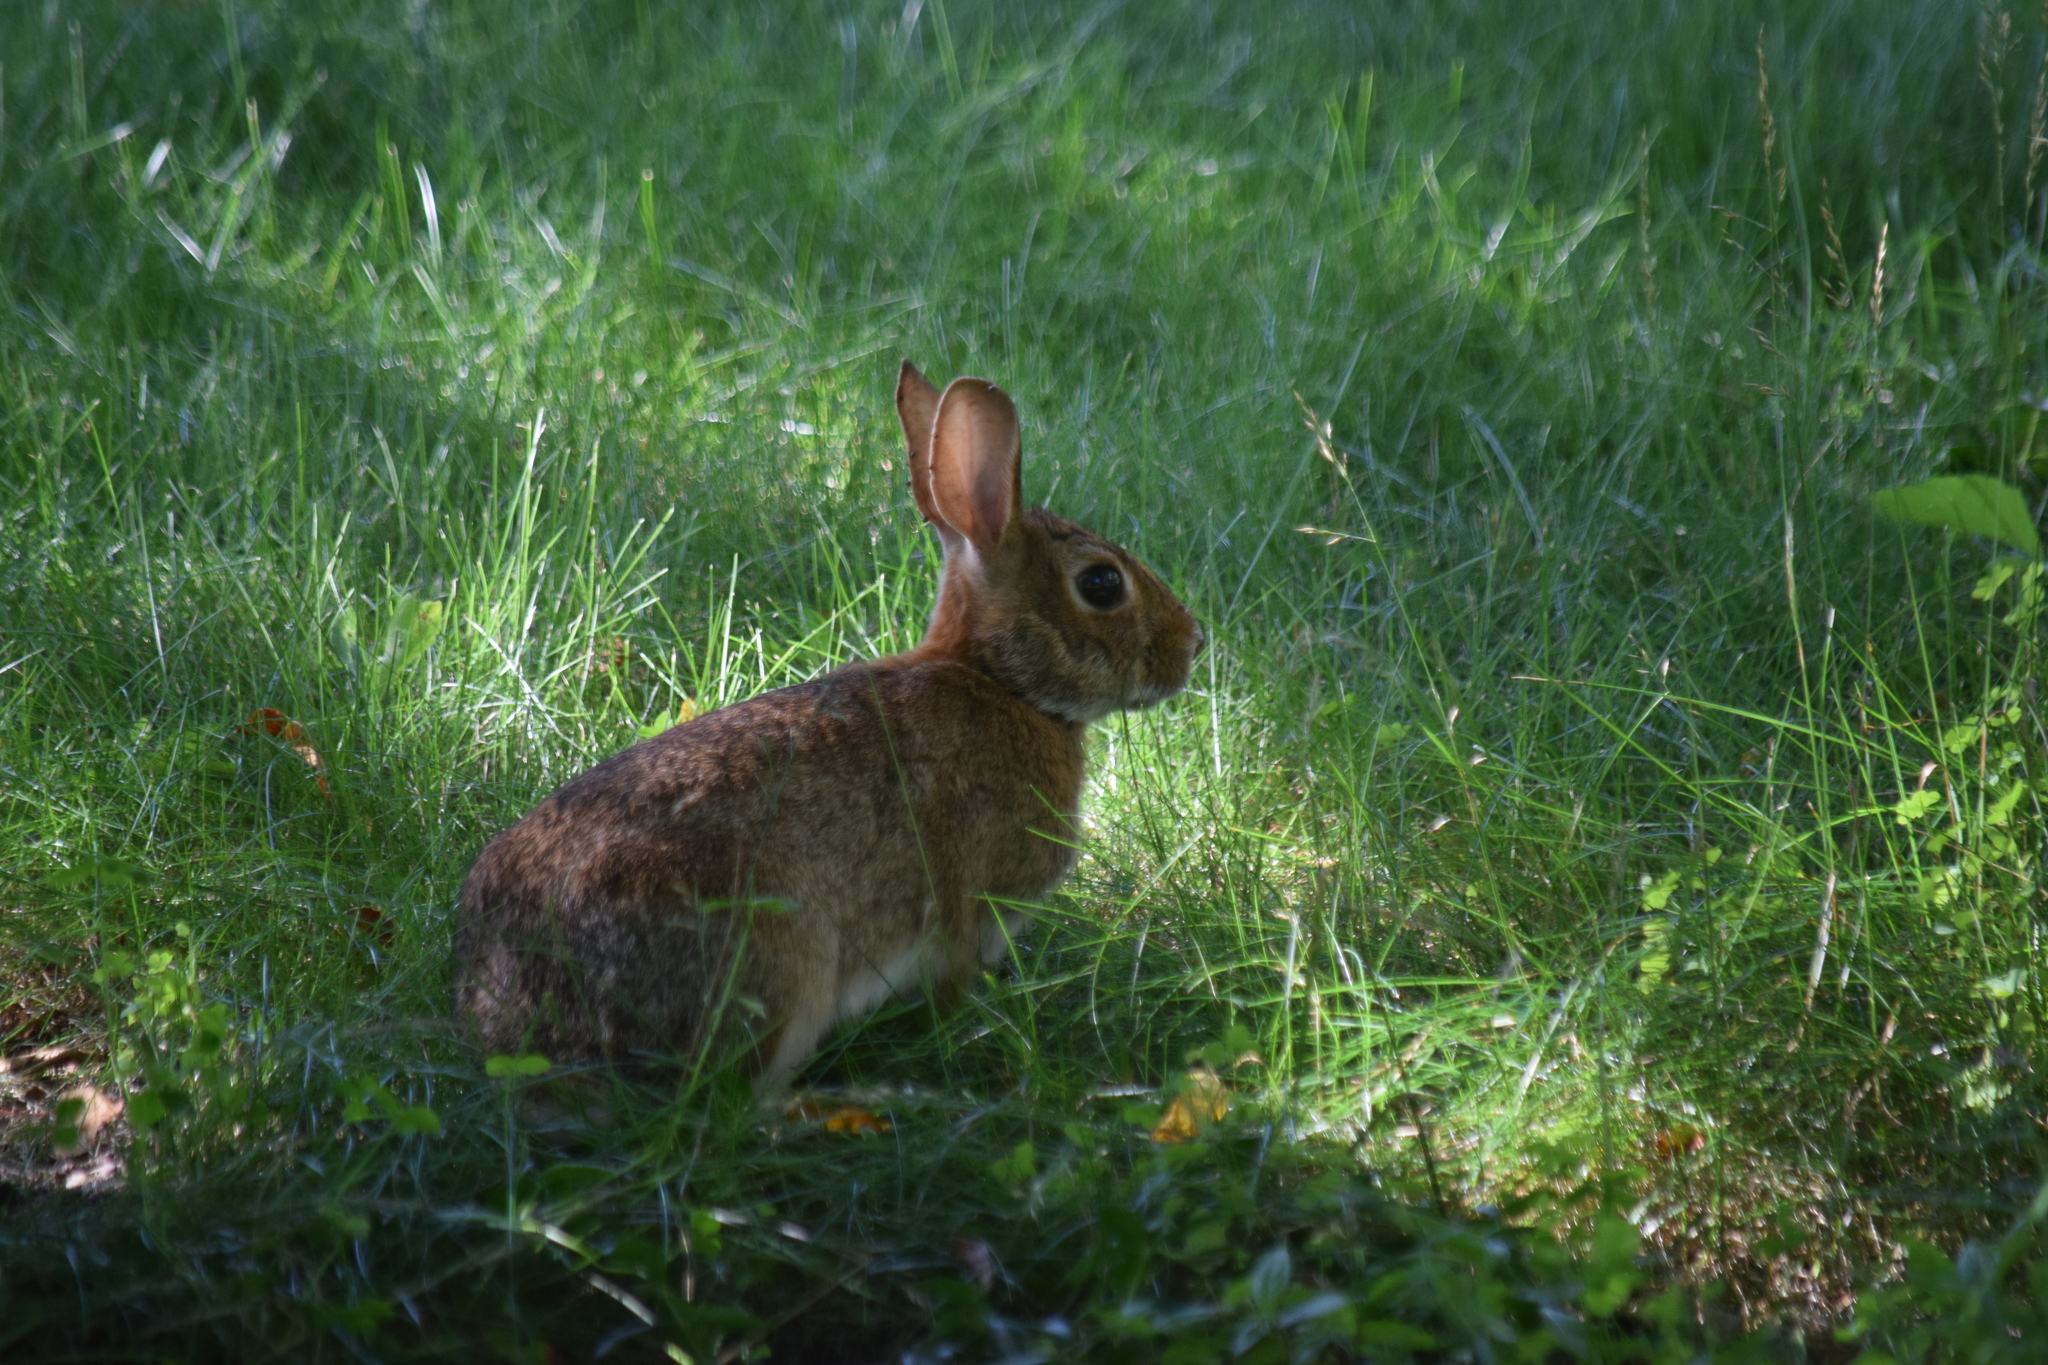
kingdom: Animalia
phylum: Chordata
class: Mammalia
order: Lagomorpha
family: Leporidae
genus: Sylvilagus
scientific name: Sylvilagus floridanus
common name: Eastern cottontail
